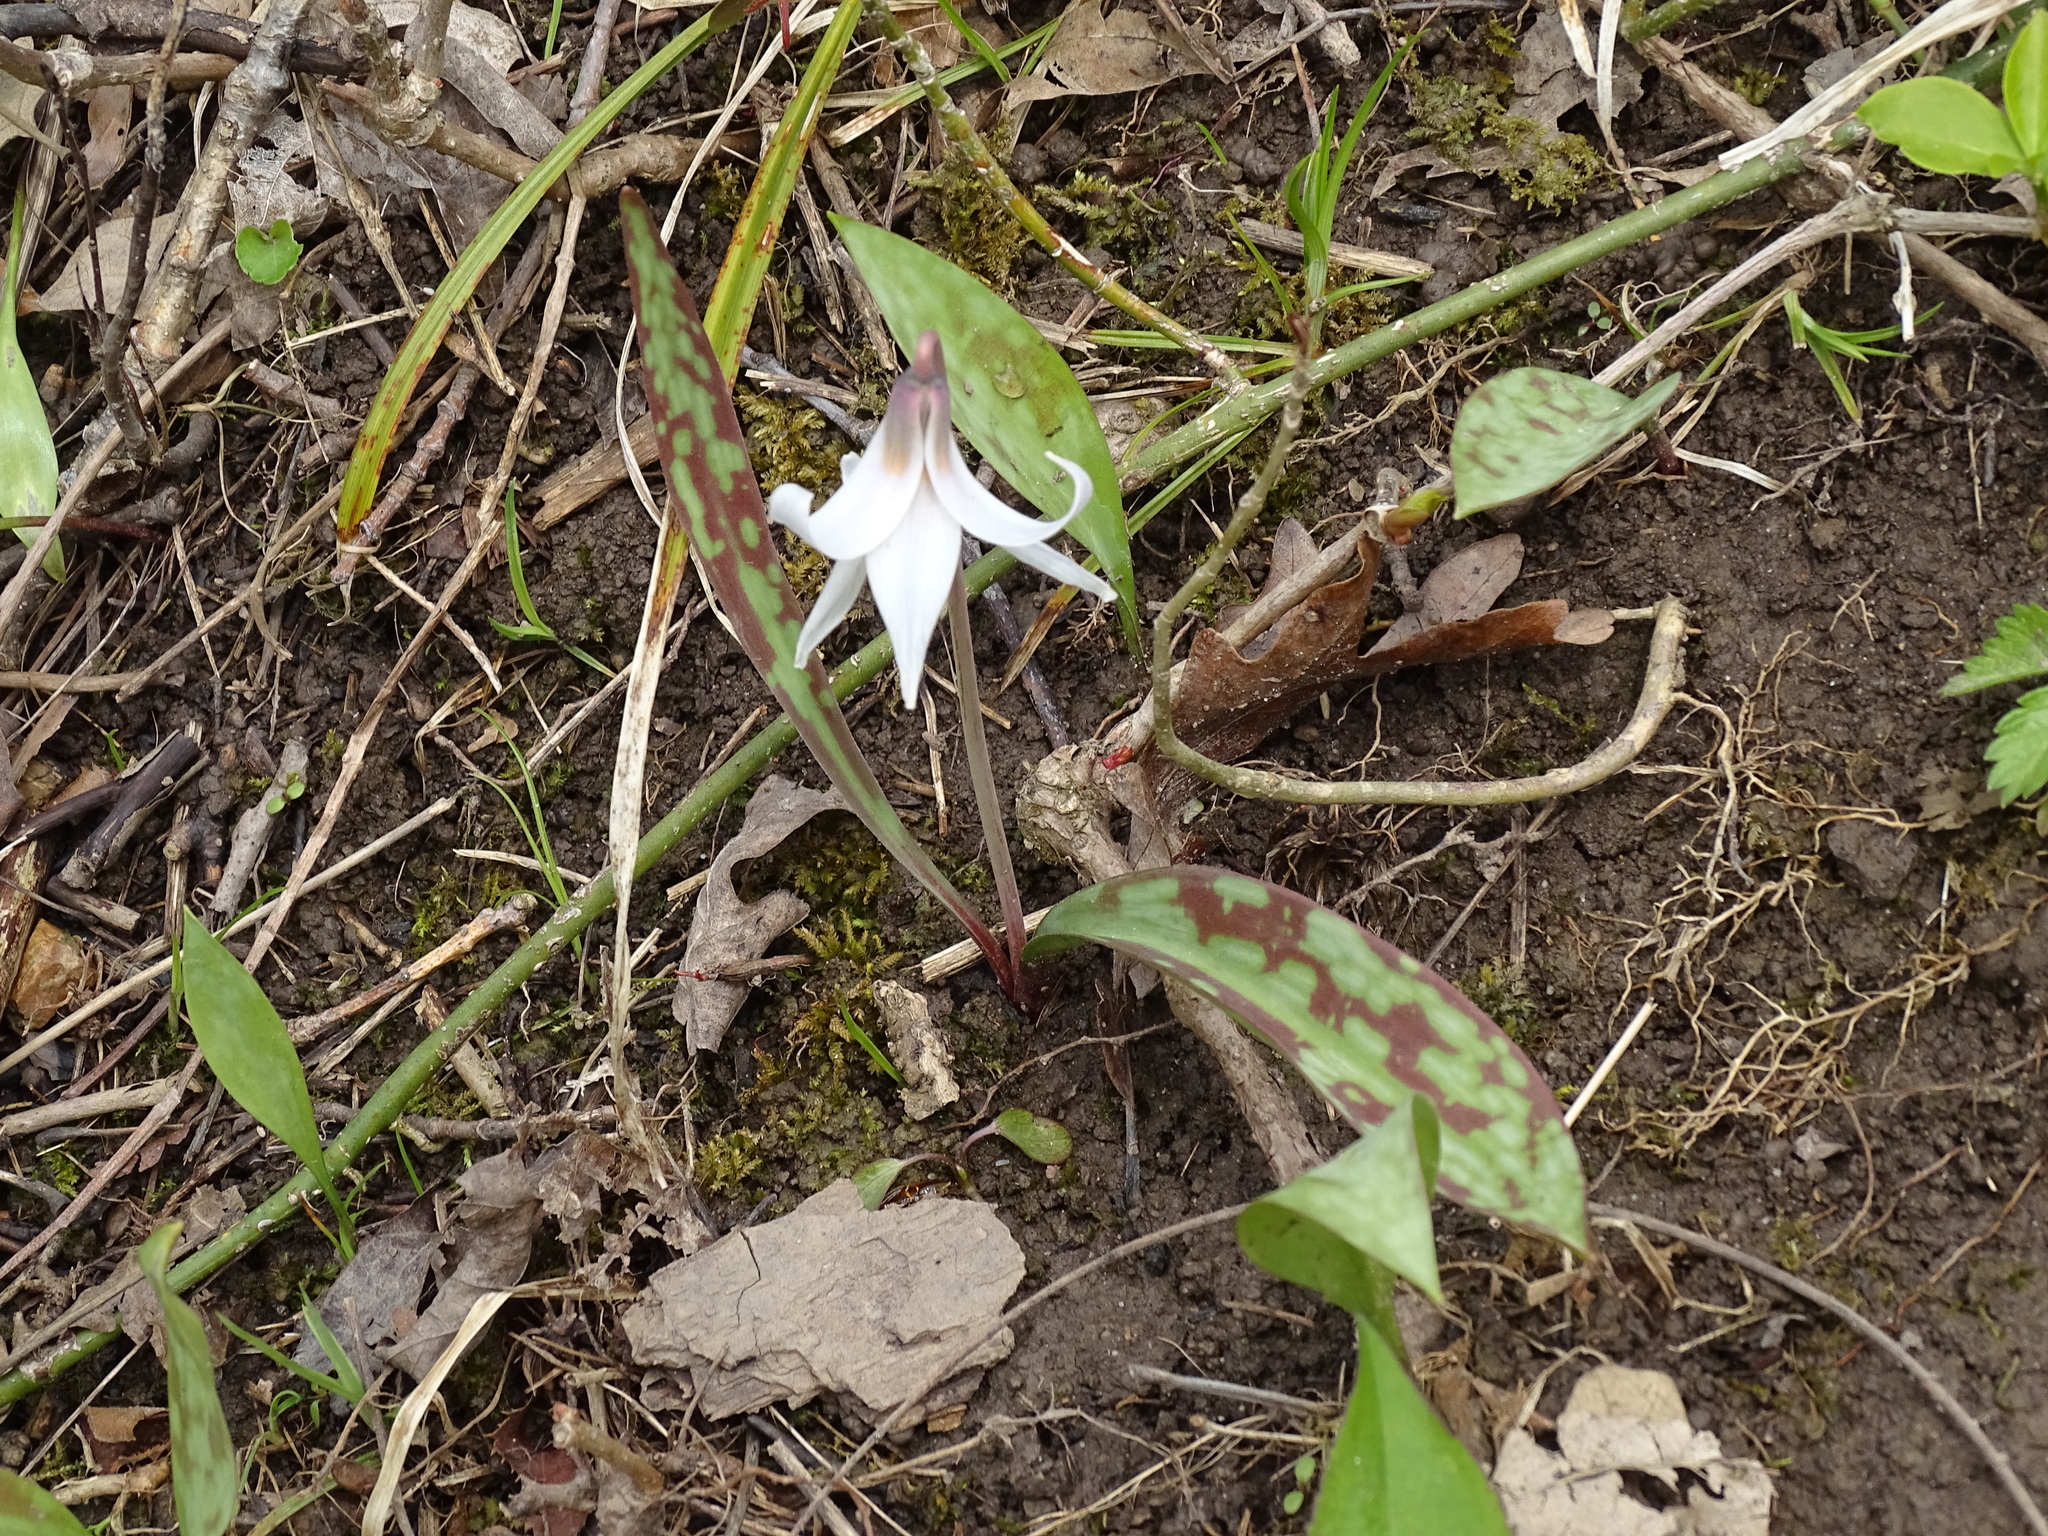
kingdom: Plantae
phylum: Tracheophyta
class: Liliopsida
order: Liliales
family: Liliaceae
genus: Erythronium
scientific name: Erythronium albidum
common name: White trout-lily
